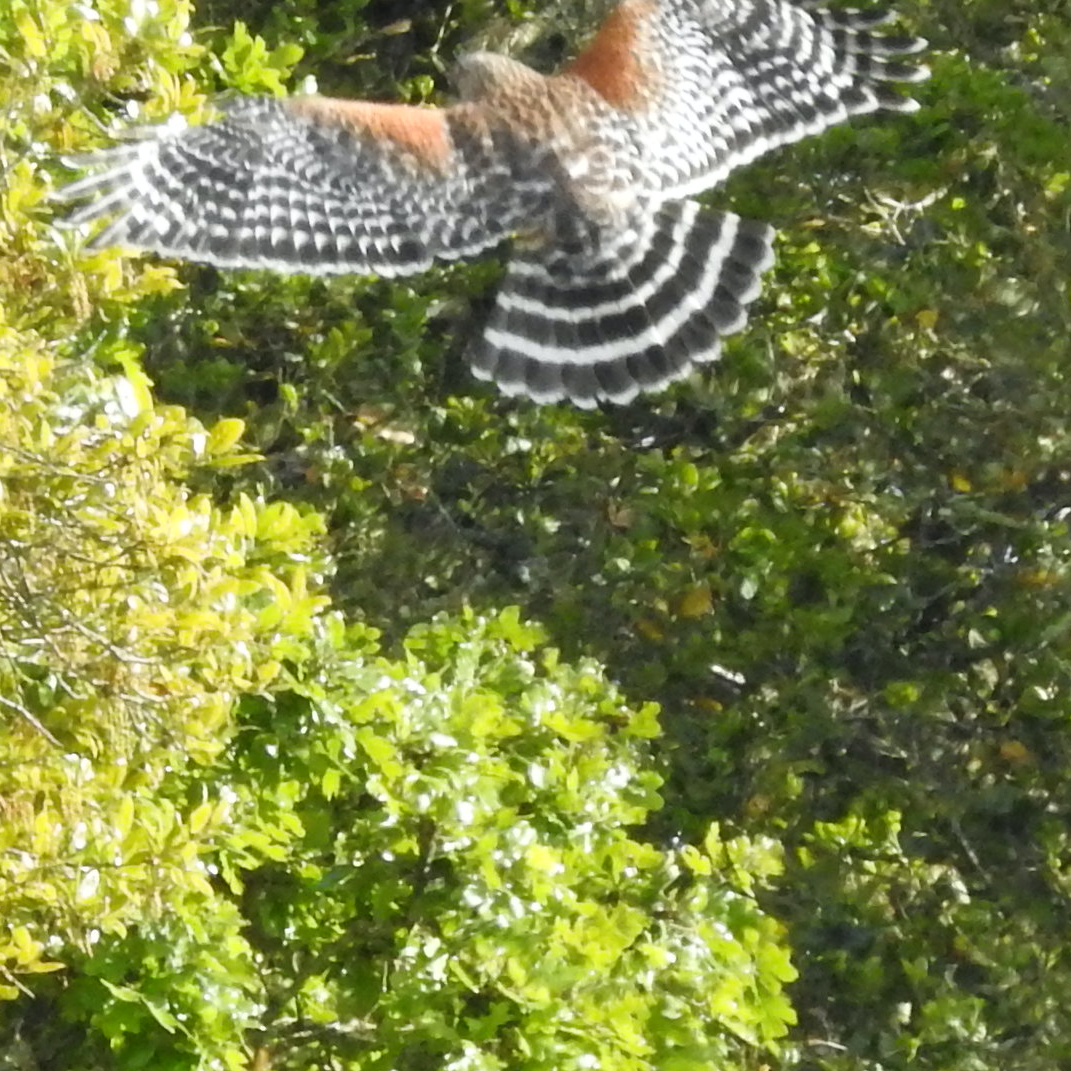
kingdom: Animalia
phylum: Chordata
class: Aves
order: Accipitriformes
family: Accipitridae
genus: Buteo
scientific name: Buteo lineatus
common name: Red-shouldered hawk
